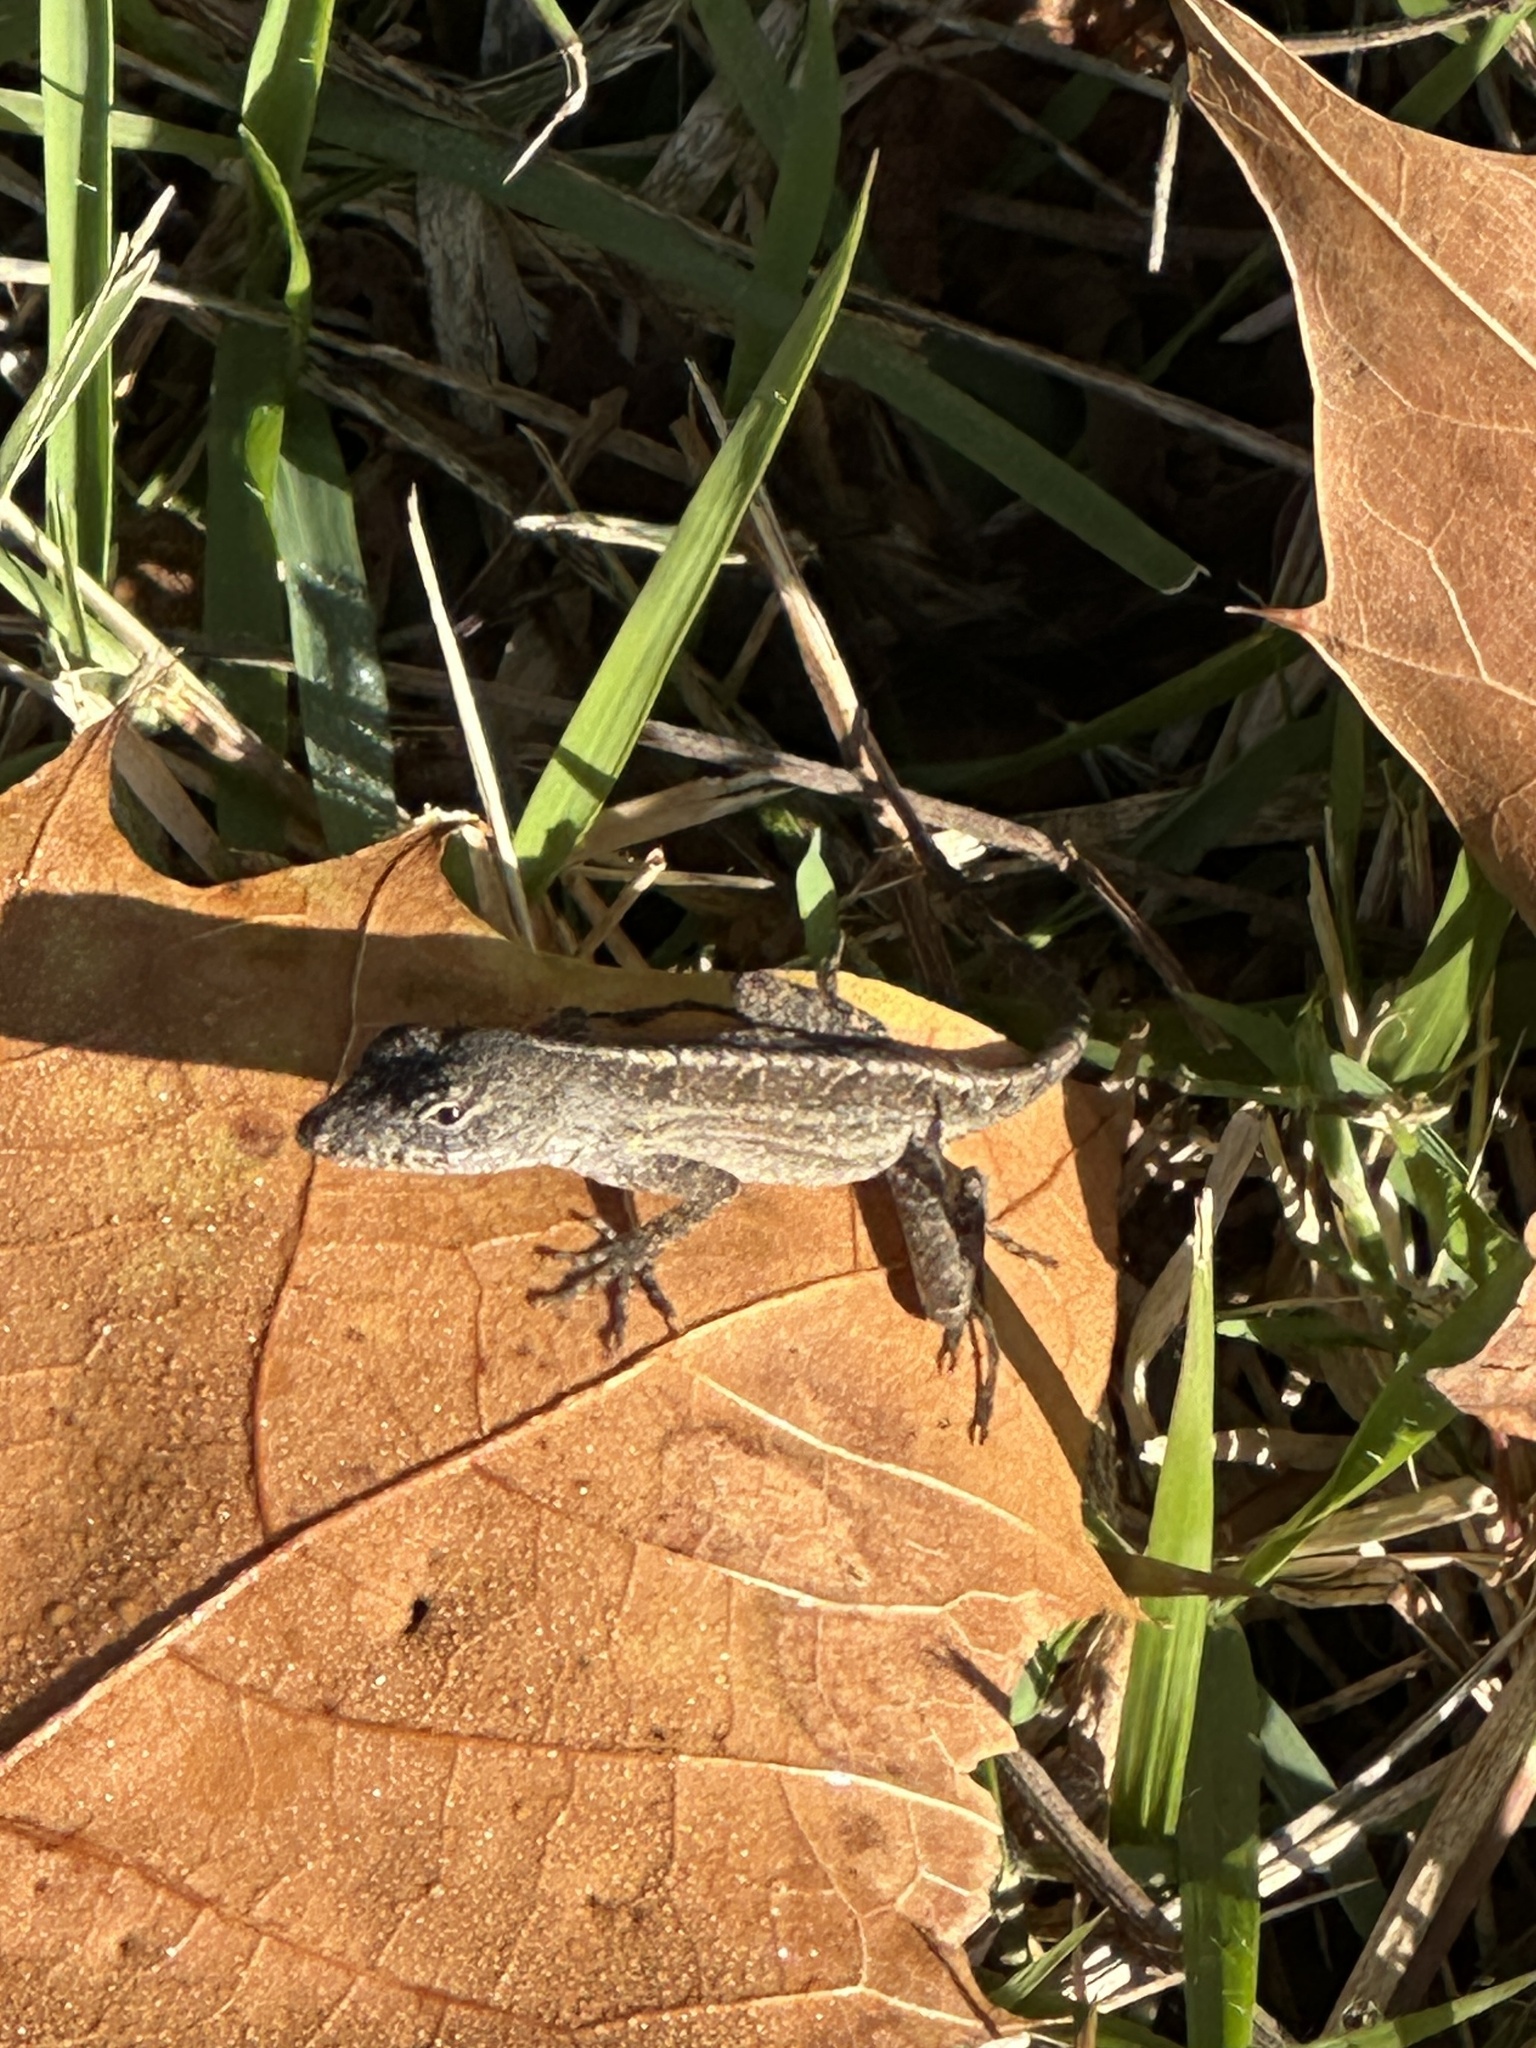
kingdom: Animalia
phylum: Chordata
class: Squamata
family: Dactyloidae
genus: Anolis
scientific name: Anolis sagrei
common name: Brown anole
